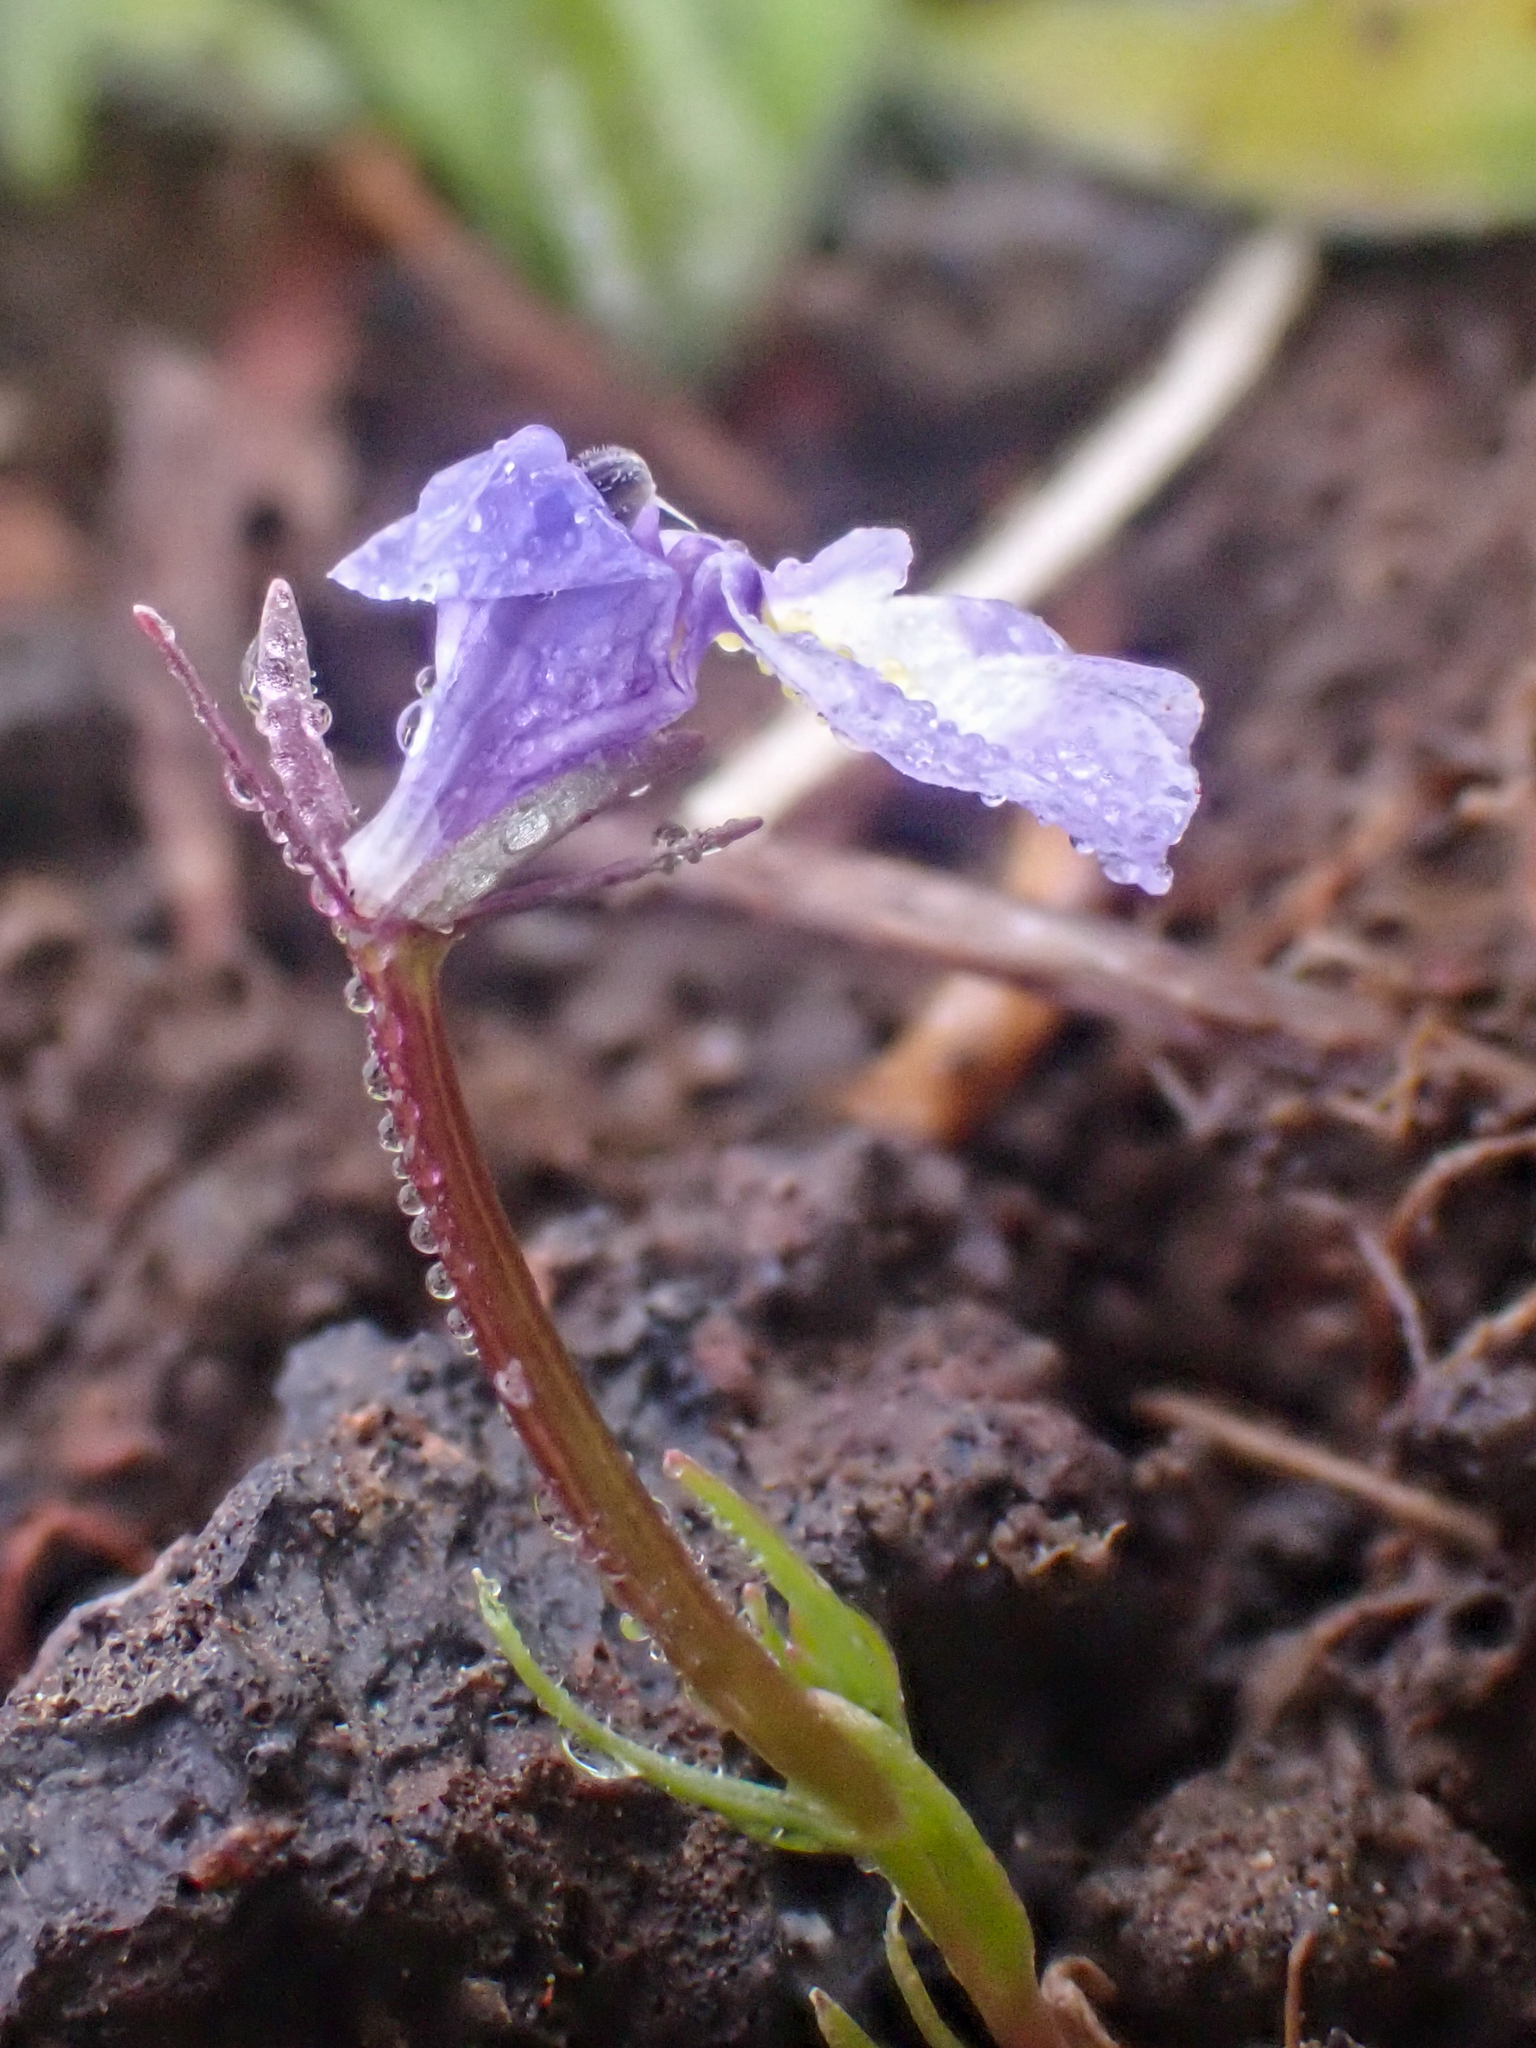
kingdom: Plantae
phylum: Tracheophyta
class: Magnoliopsida
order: Asterales
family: Campanulaceae
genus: Downingia
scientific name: Downingia bicornuta
